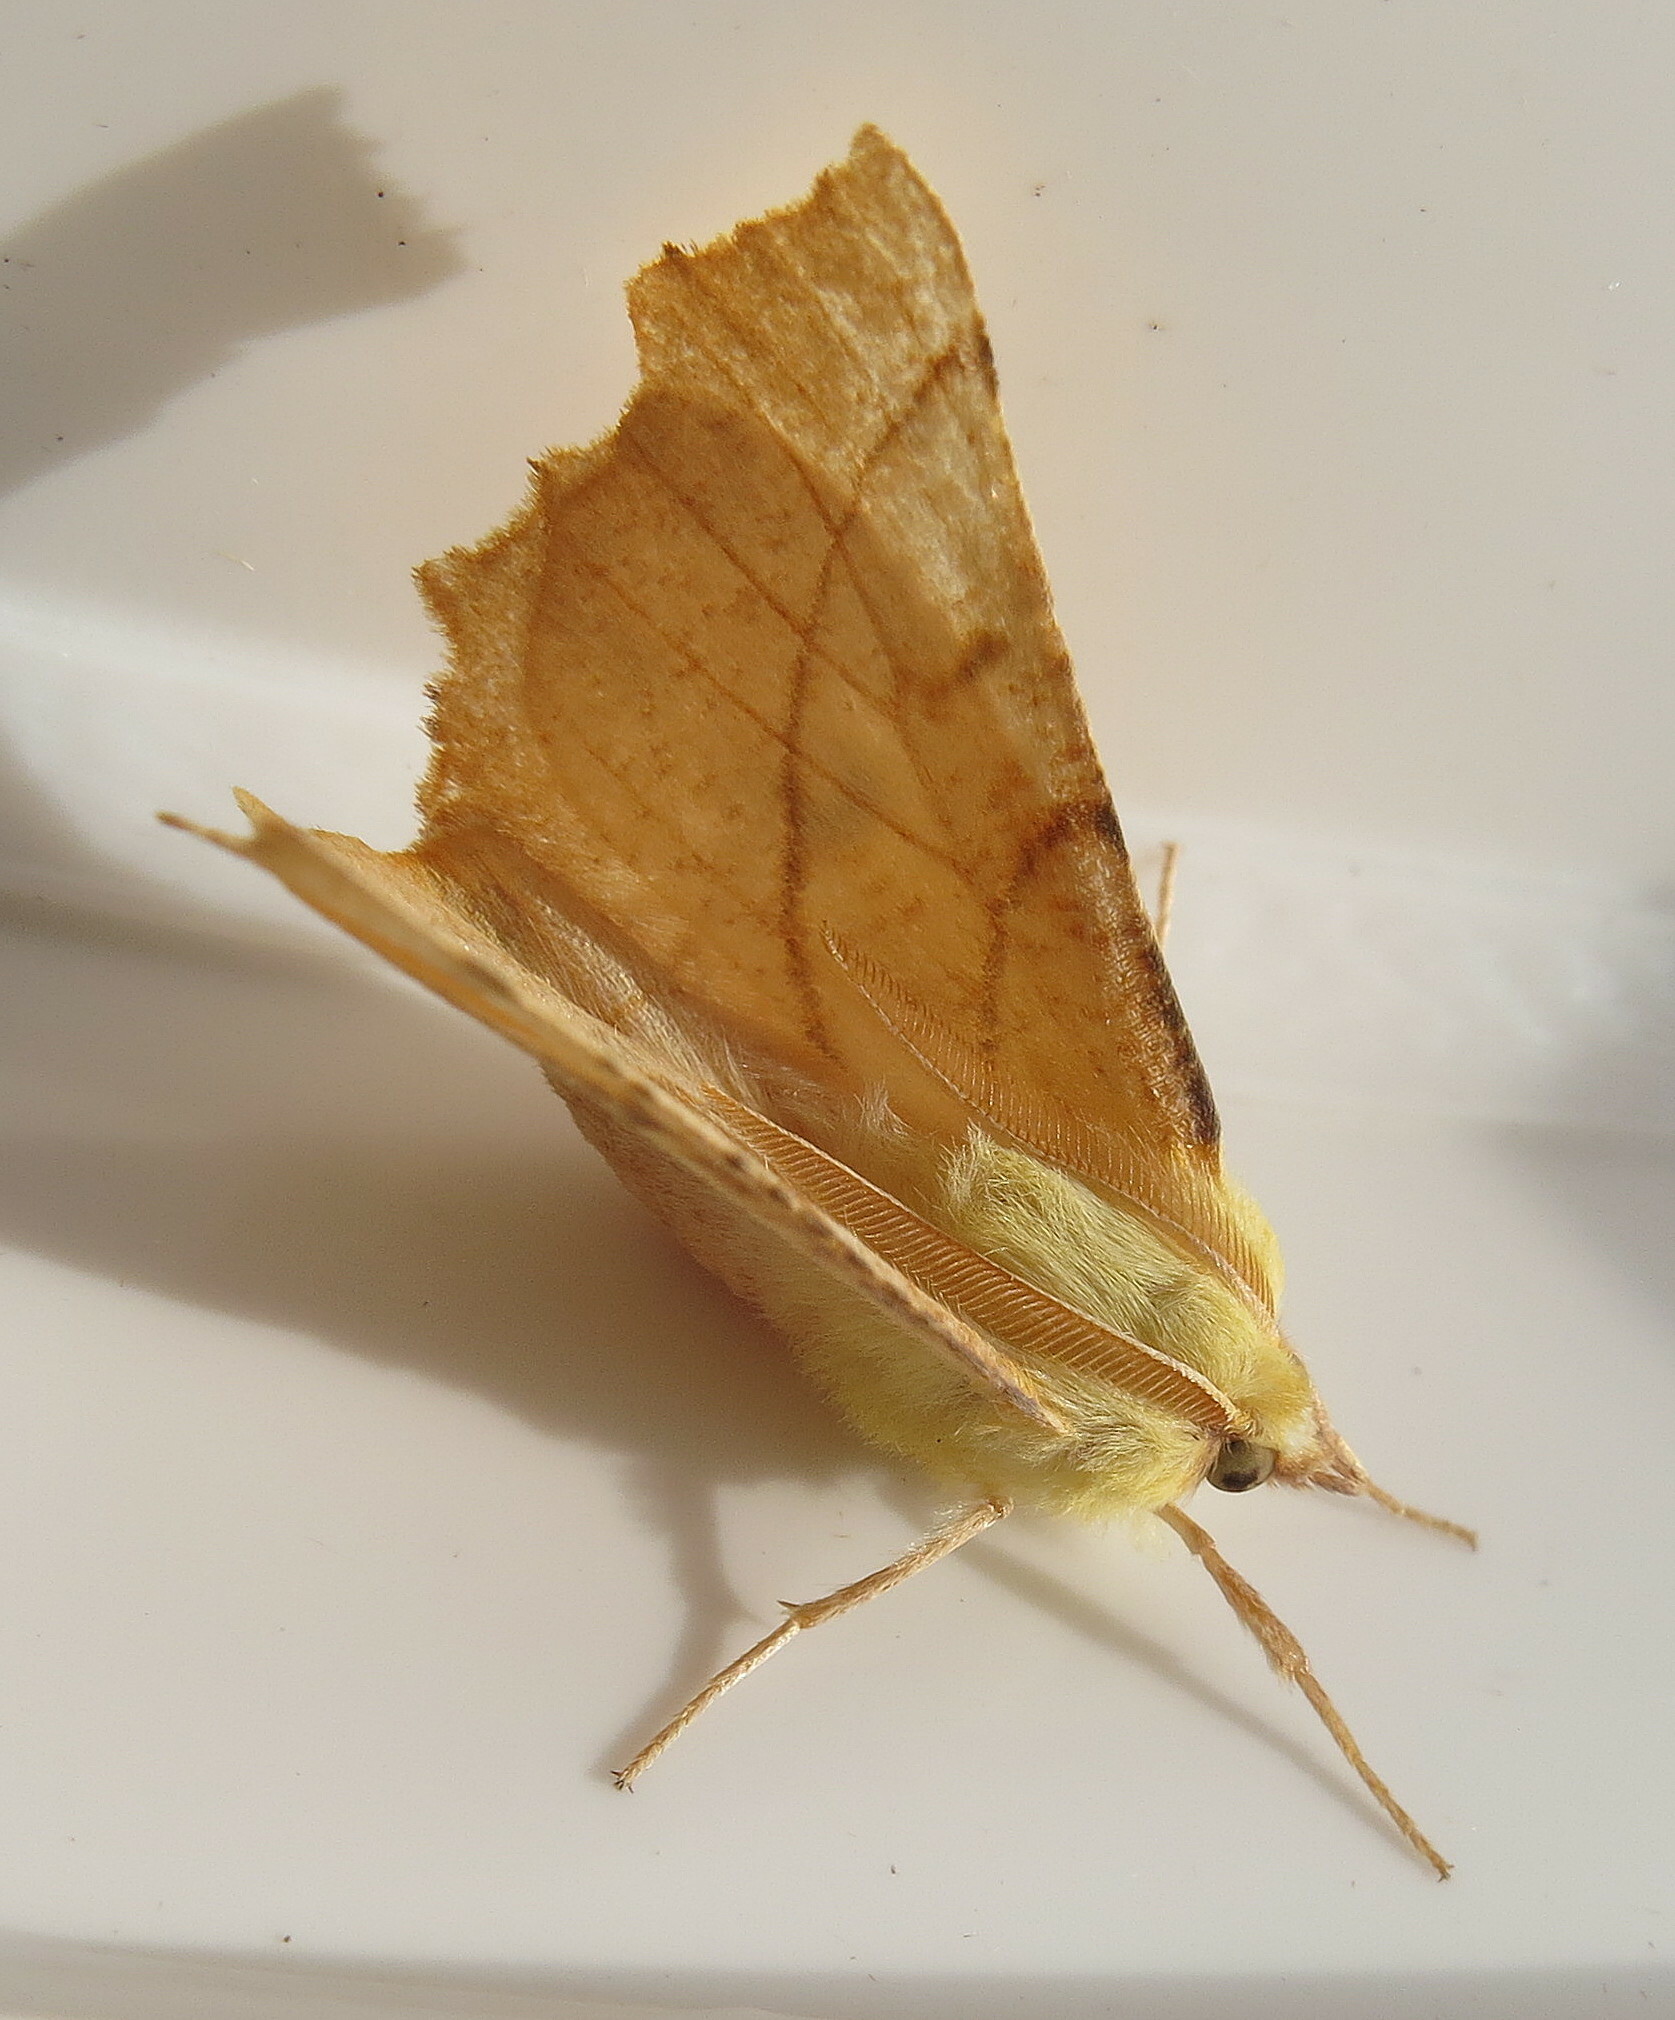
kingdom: Animalia
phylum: Arthropoda
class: Insecta
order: Lepidoptera
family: Geometridae
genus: Ennomos
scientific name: Ennomos alniaria
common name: Canary-shouldered thorn
